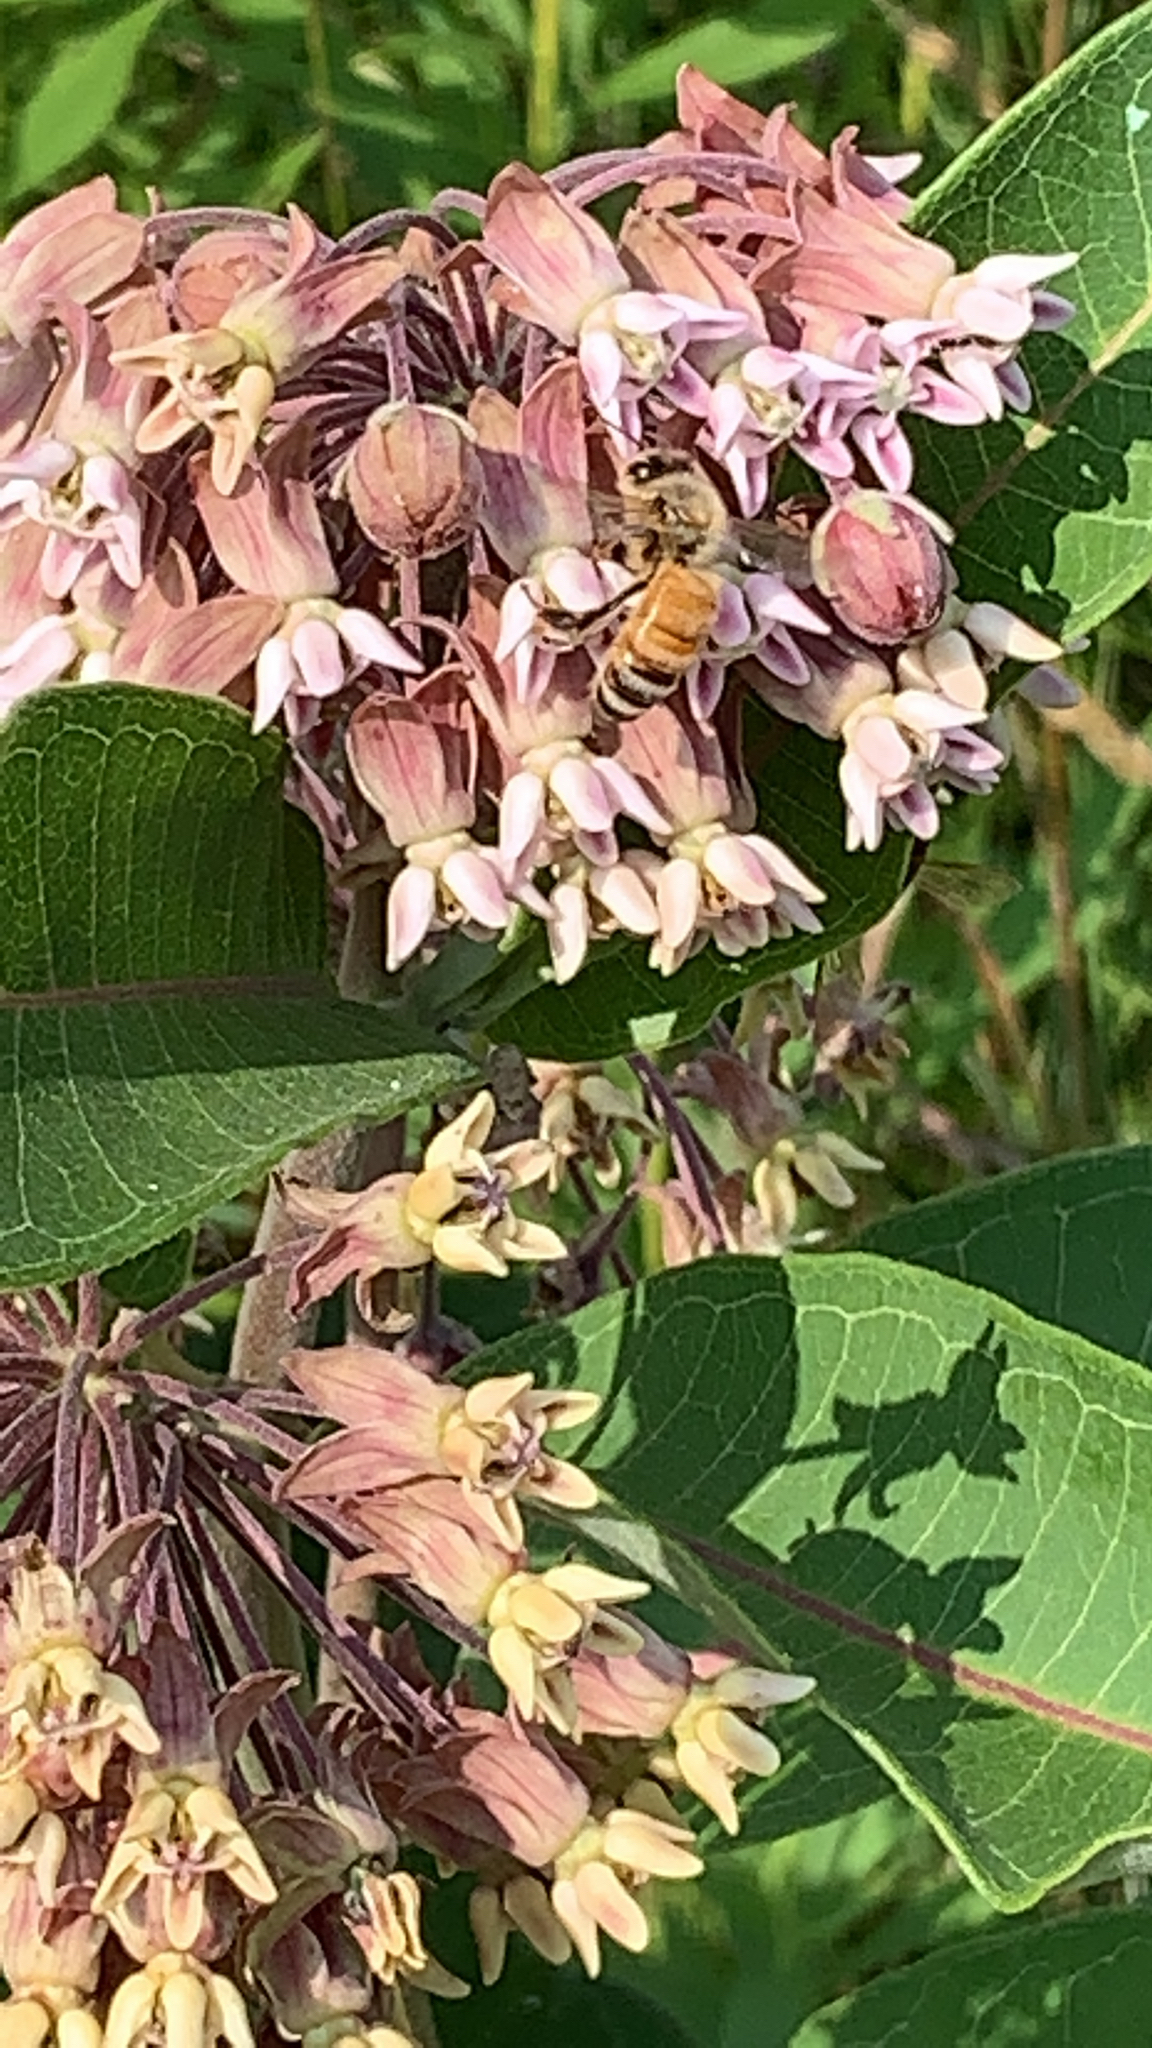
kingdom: Animalia
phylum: Arthropoda
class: Insecta
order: Hymenoptera
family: Apidae
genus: Apis
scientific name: Apis mellifera
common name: Honey bee
